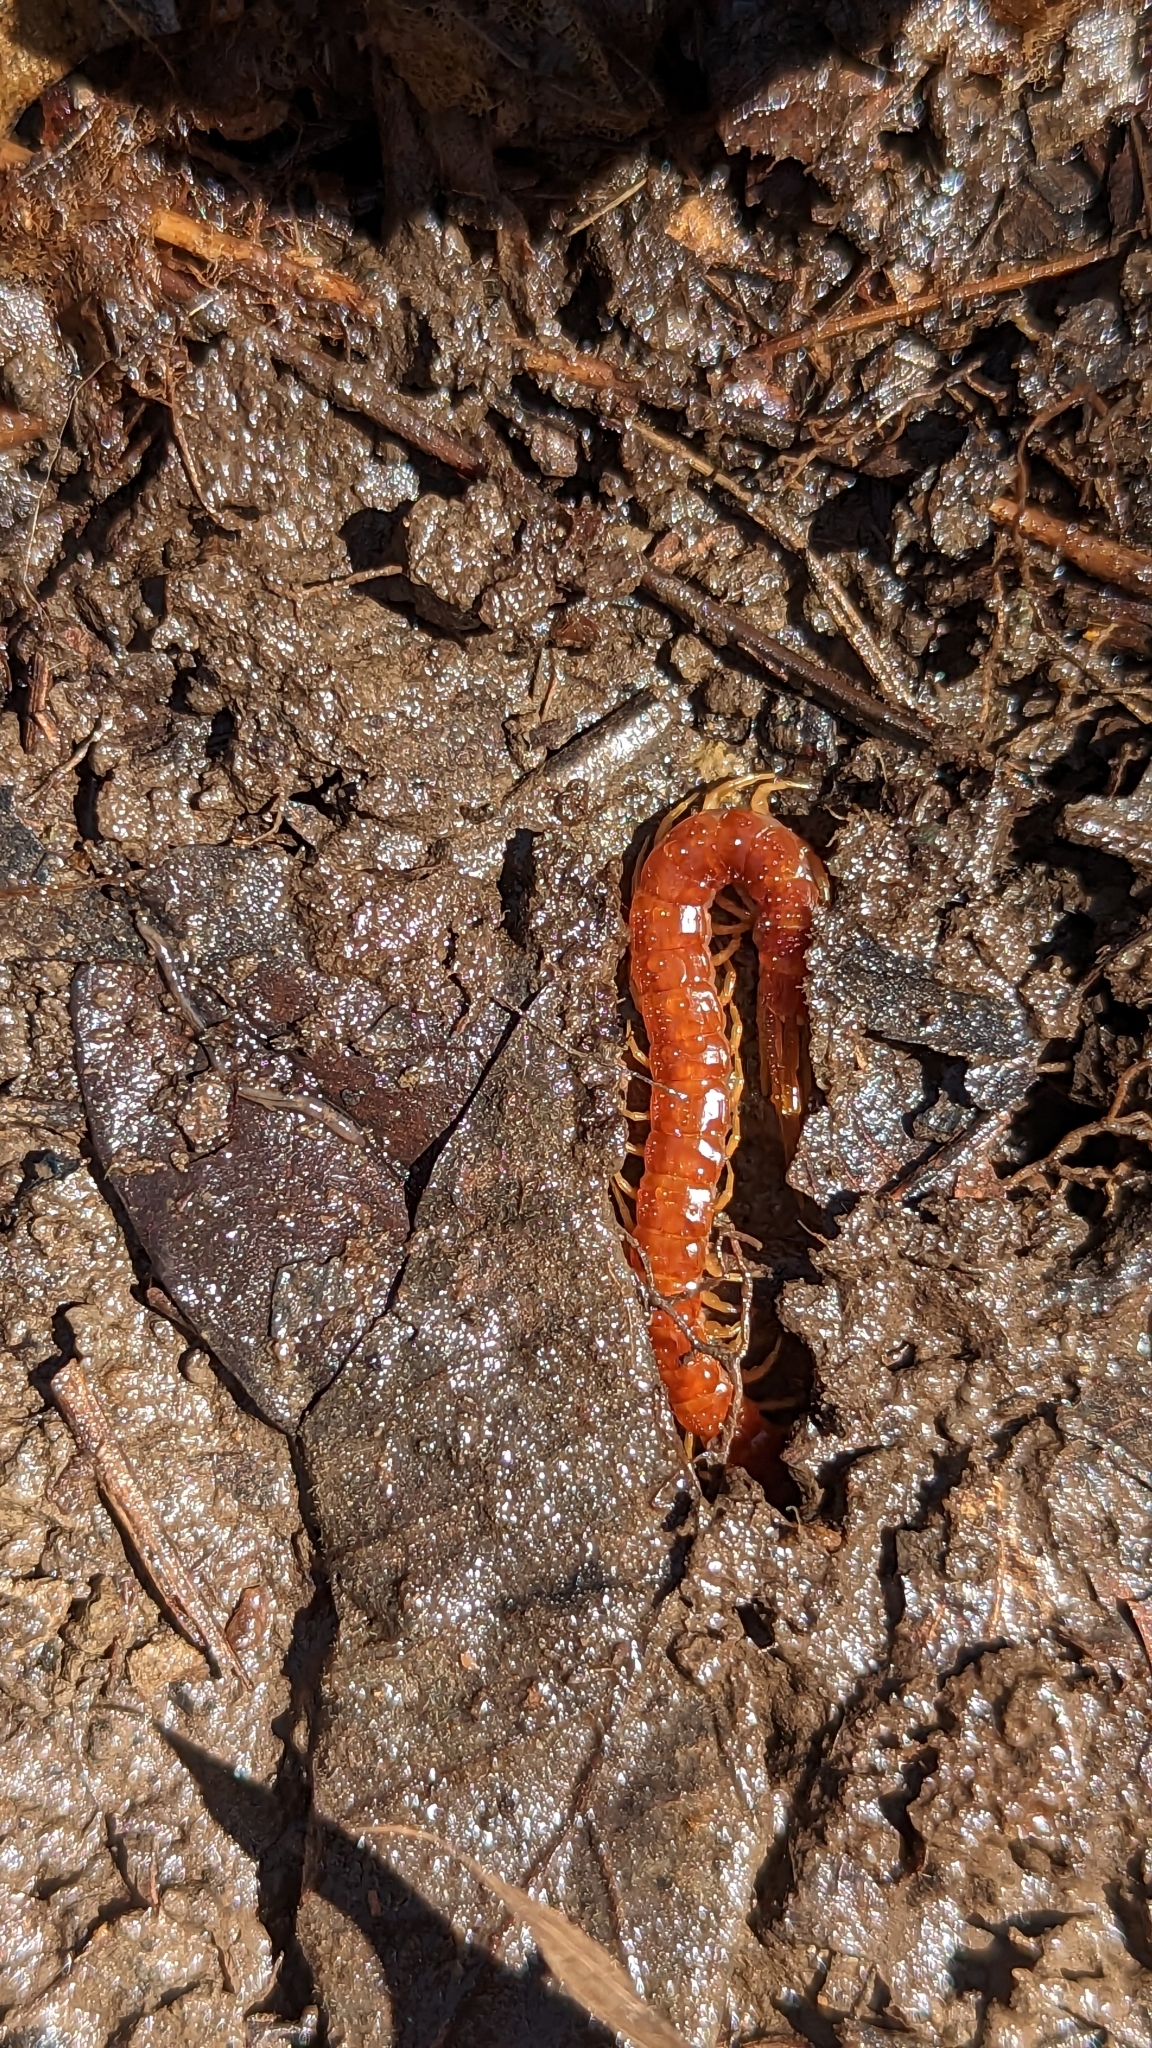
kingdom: Animalia
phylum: Arthropoda
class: Chilopoda
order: Scolopendromorpha
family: Scolopocryptopidae
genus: Scolopocryptops
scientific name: Scolopocryptops sexspinosus
